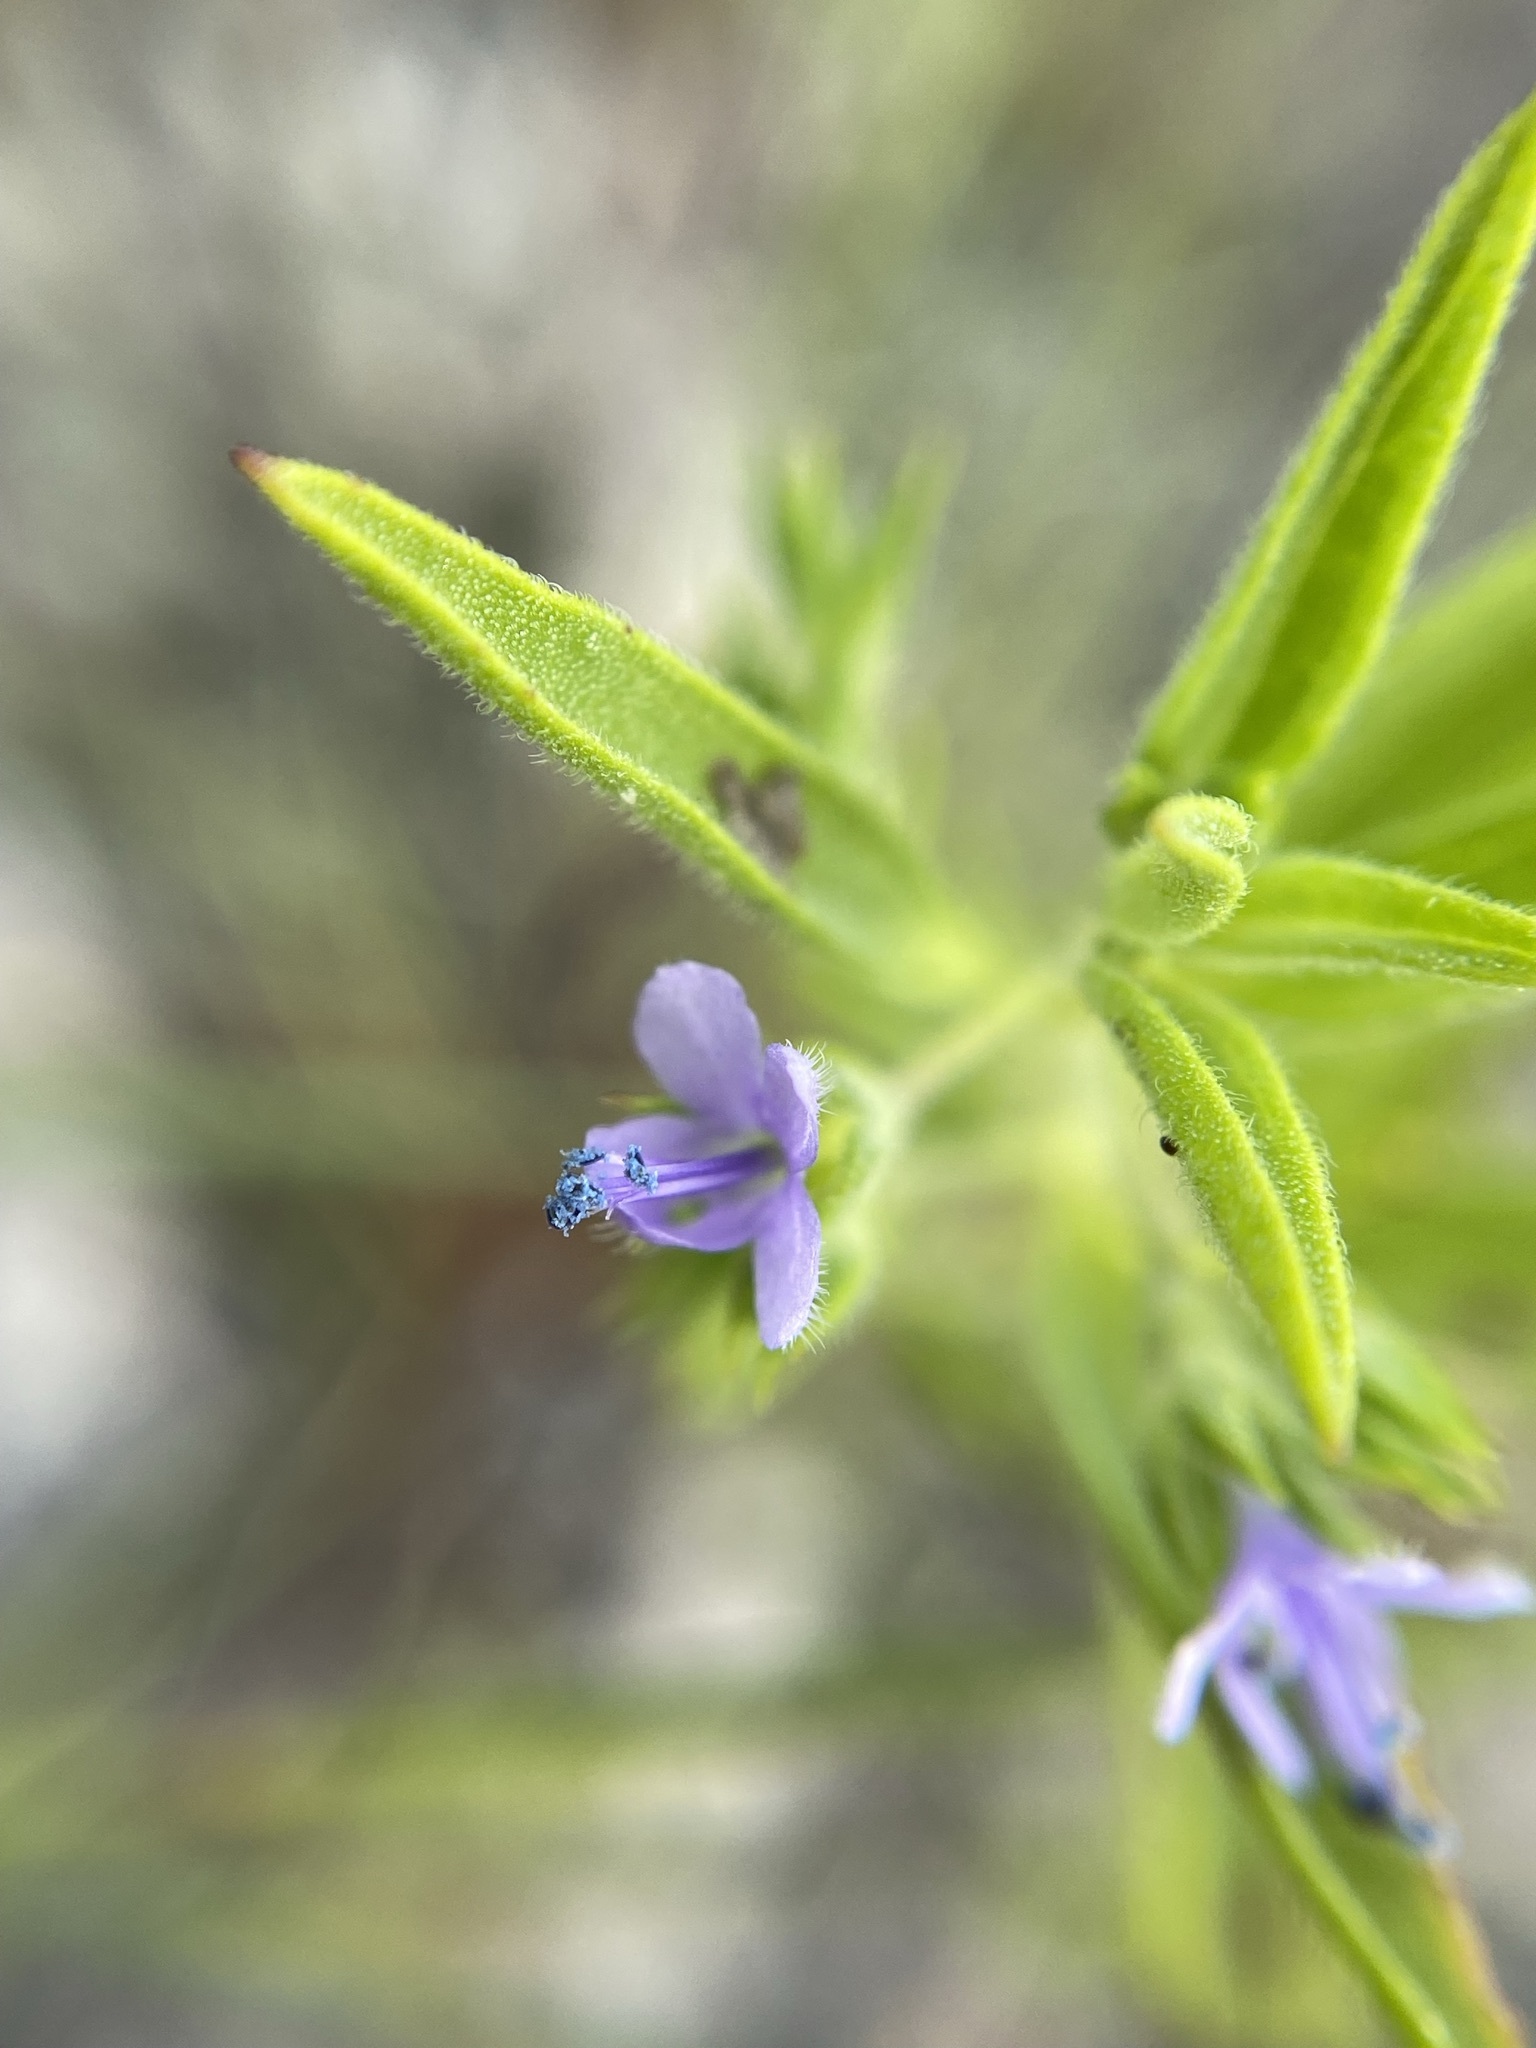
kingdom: Plantae
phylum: Tracheophyta
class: Magnoliopsida
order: Lamiales
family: Lamiaceae
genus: Trichostema
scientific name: Trichostema brachiatum
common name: False pennyroyal
